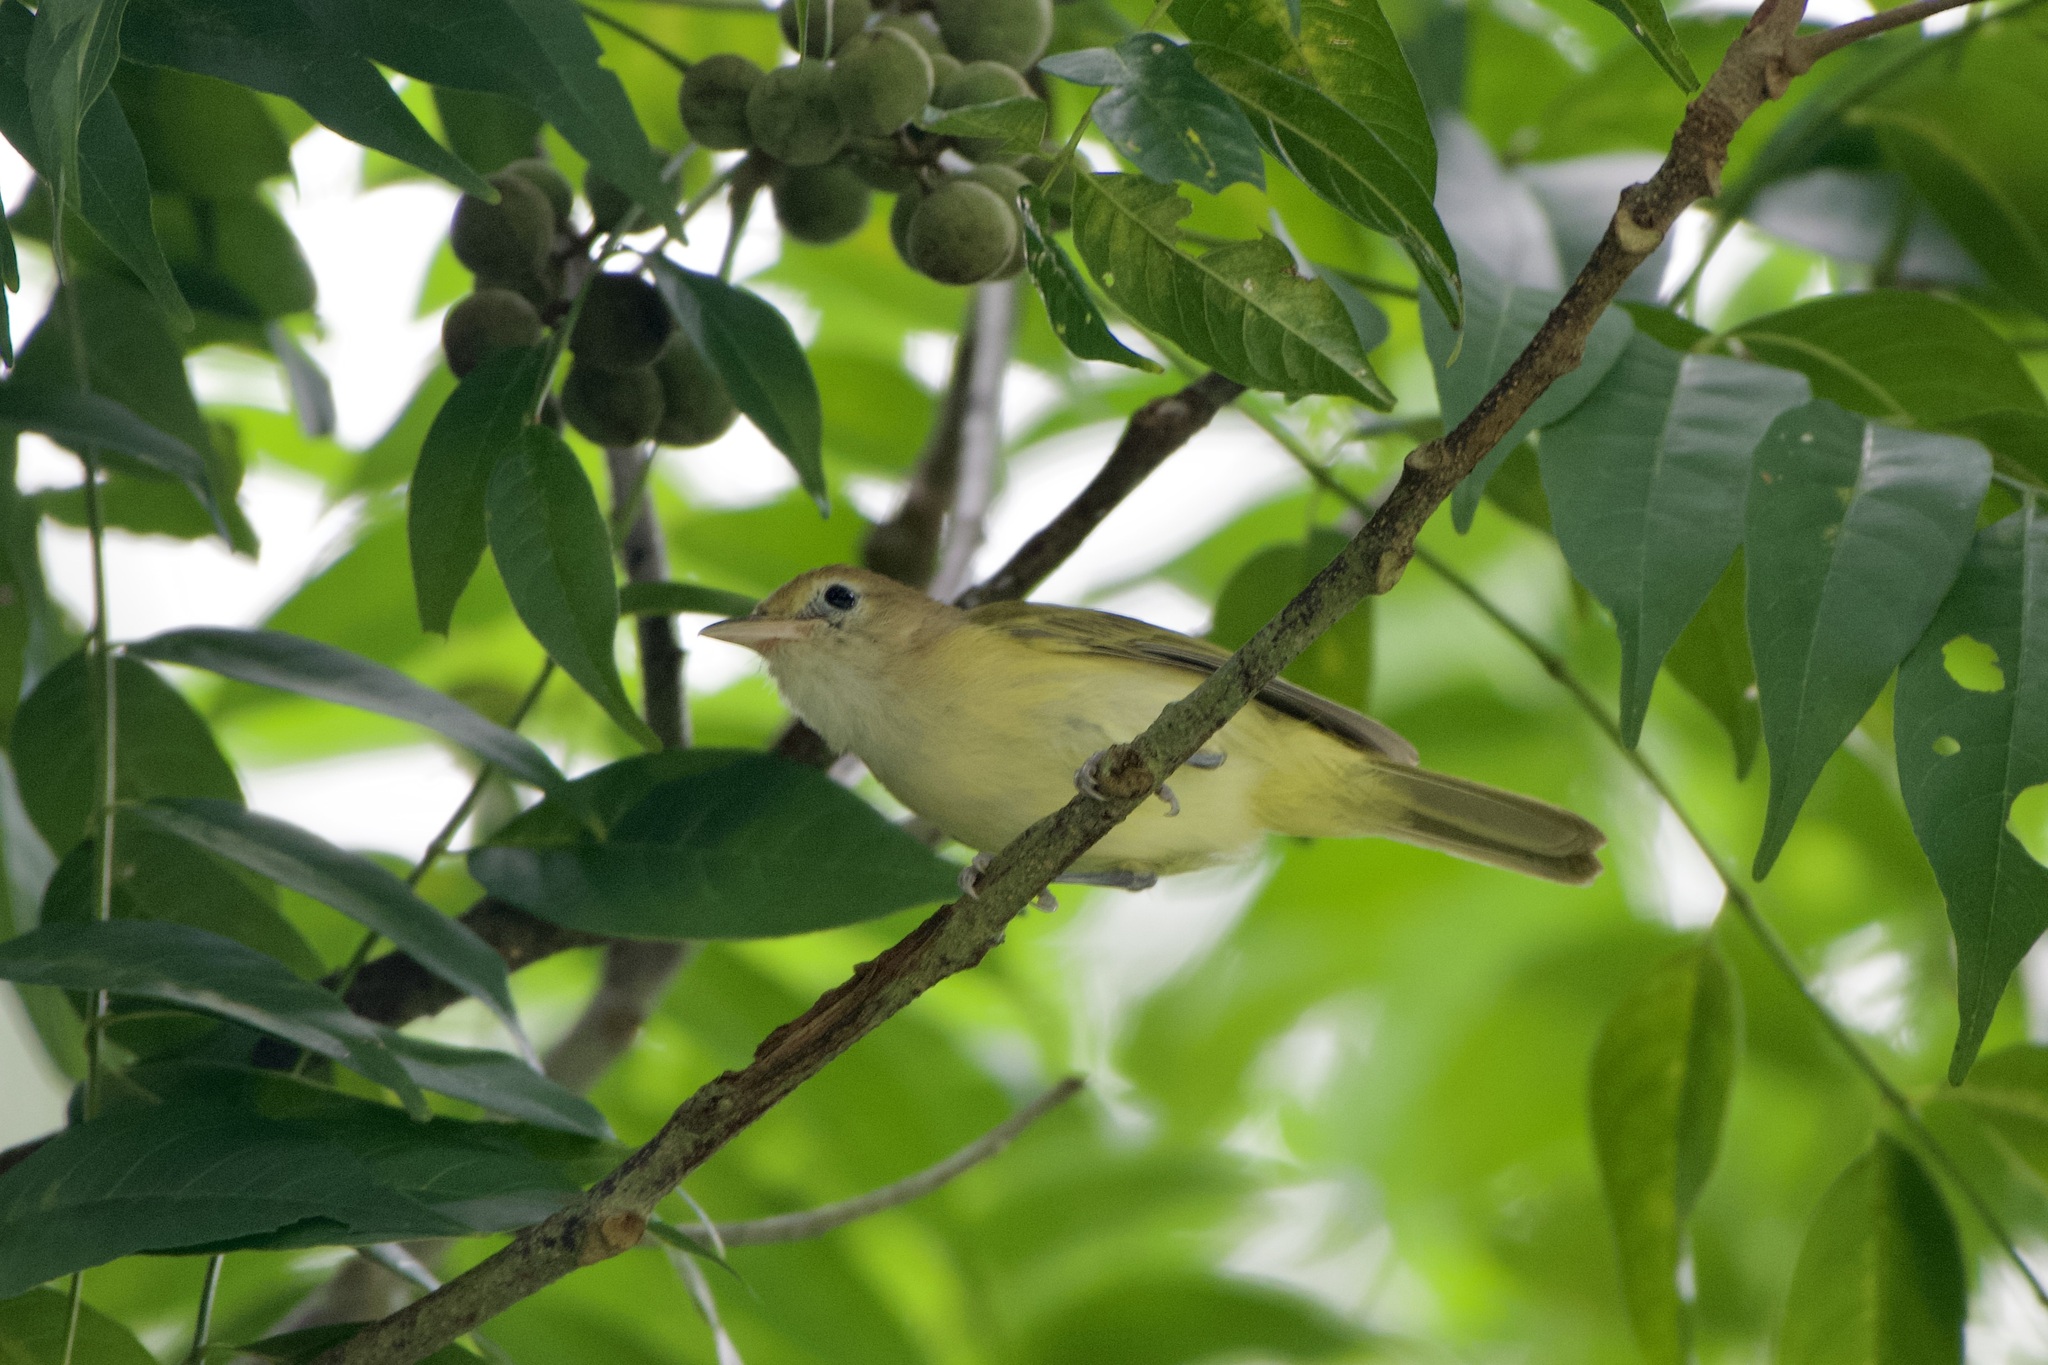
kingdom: Animalia
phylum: Chordata
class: Aves
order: Passeriformes
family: Vireonidae
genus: Hylophilus
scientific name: Hylophilus aurantiifrons
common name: Golden-fronted greenlet
